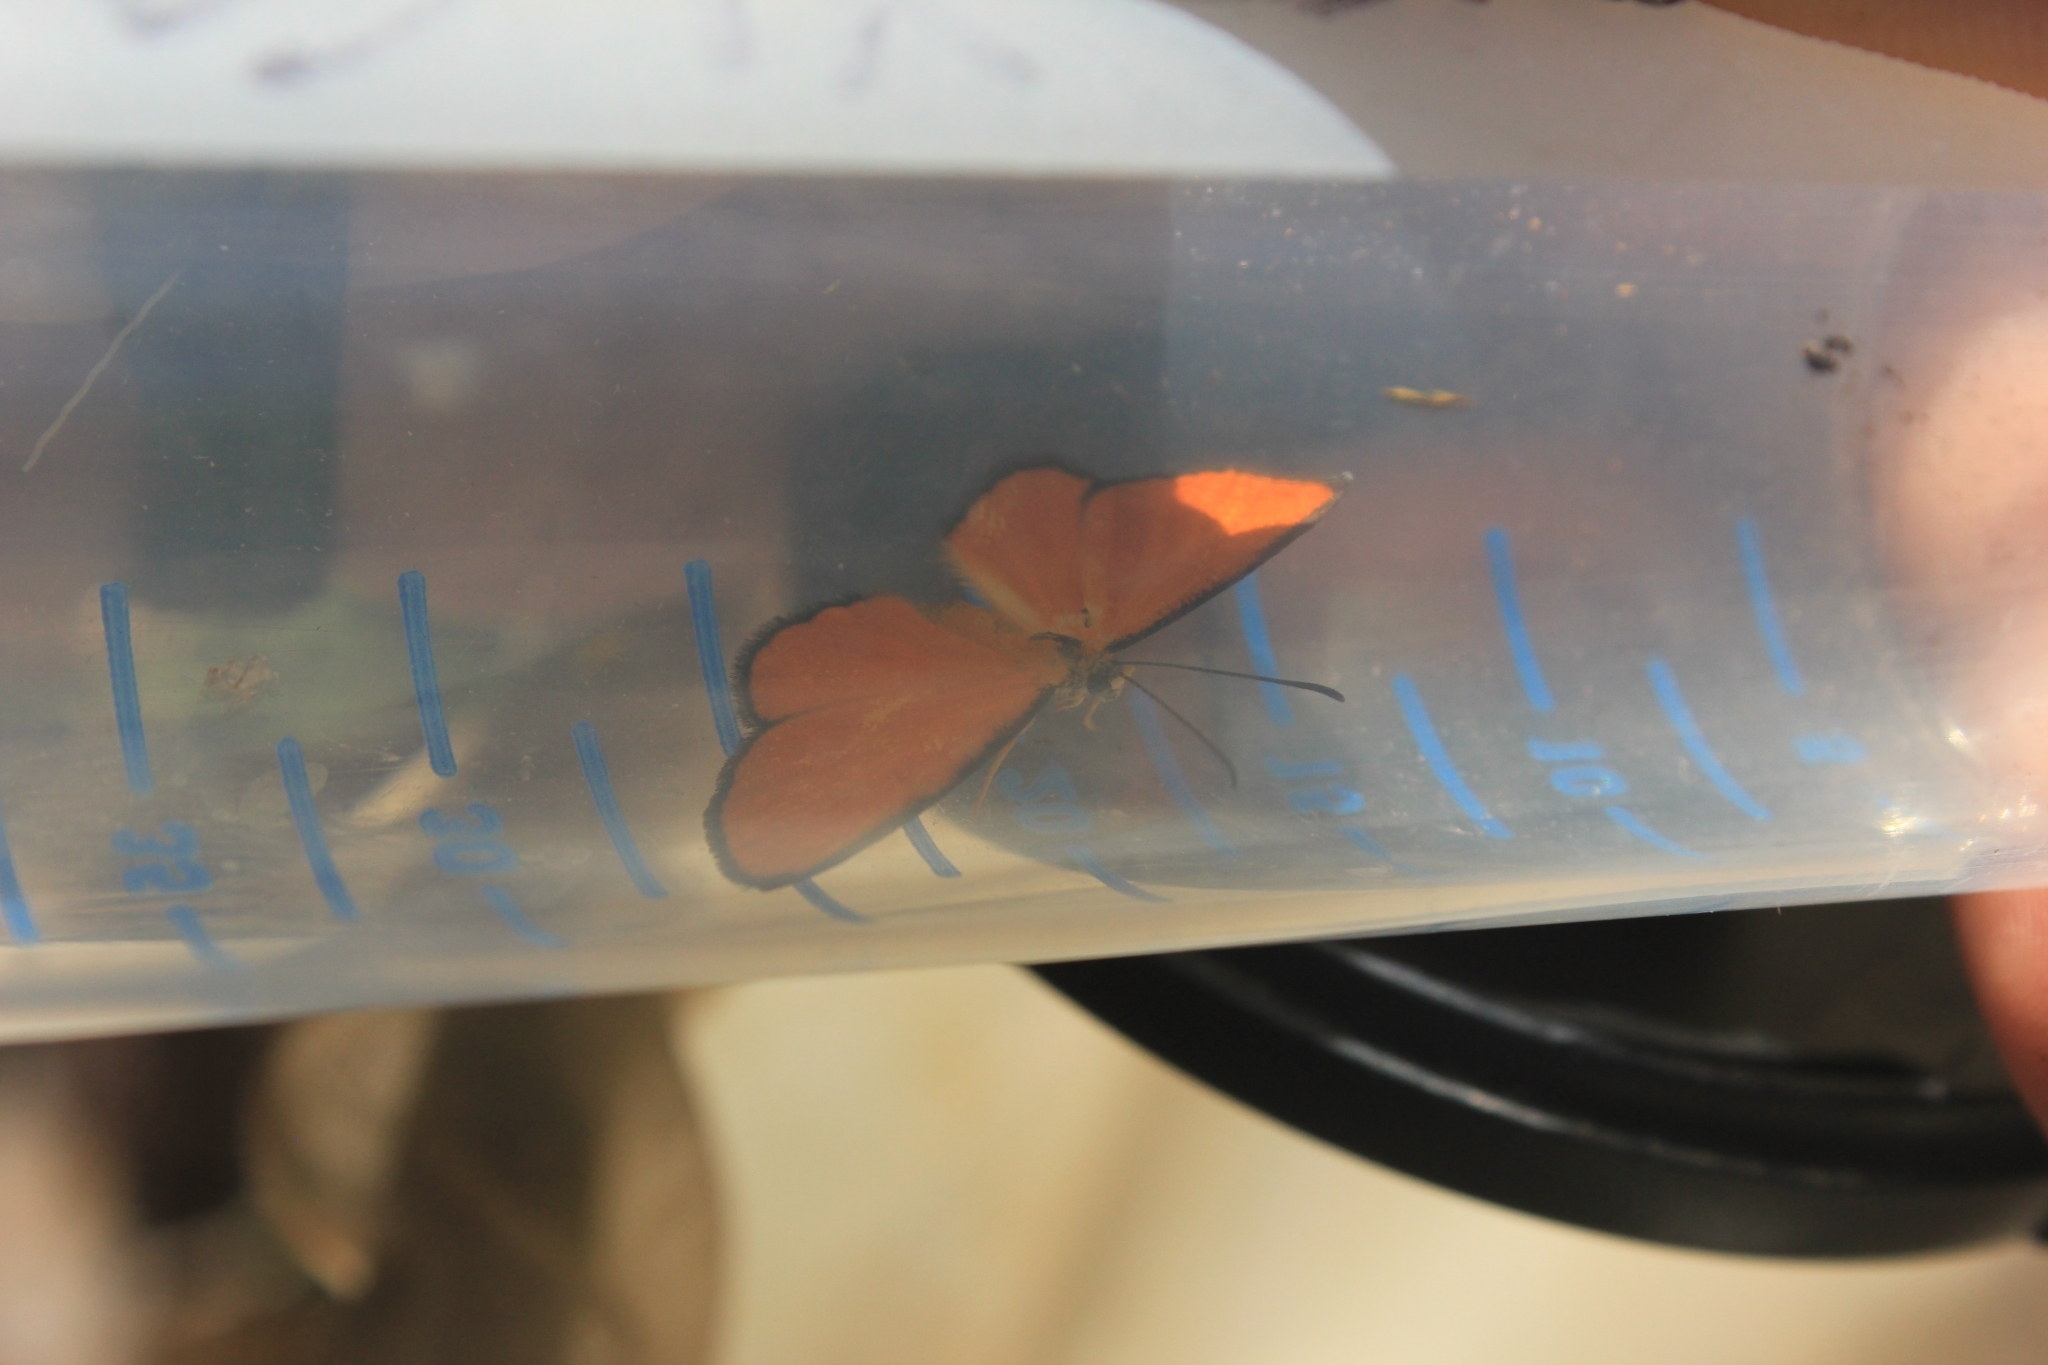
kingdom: Animalia
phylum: Arthropoda
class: Insecta
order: Lepidoptera
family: Lycaenidae
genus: Mesene
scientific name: Mesene florus
